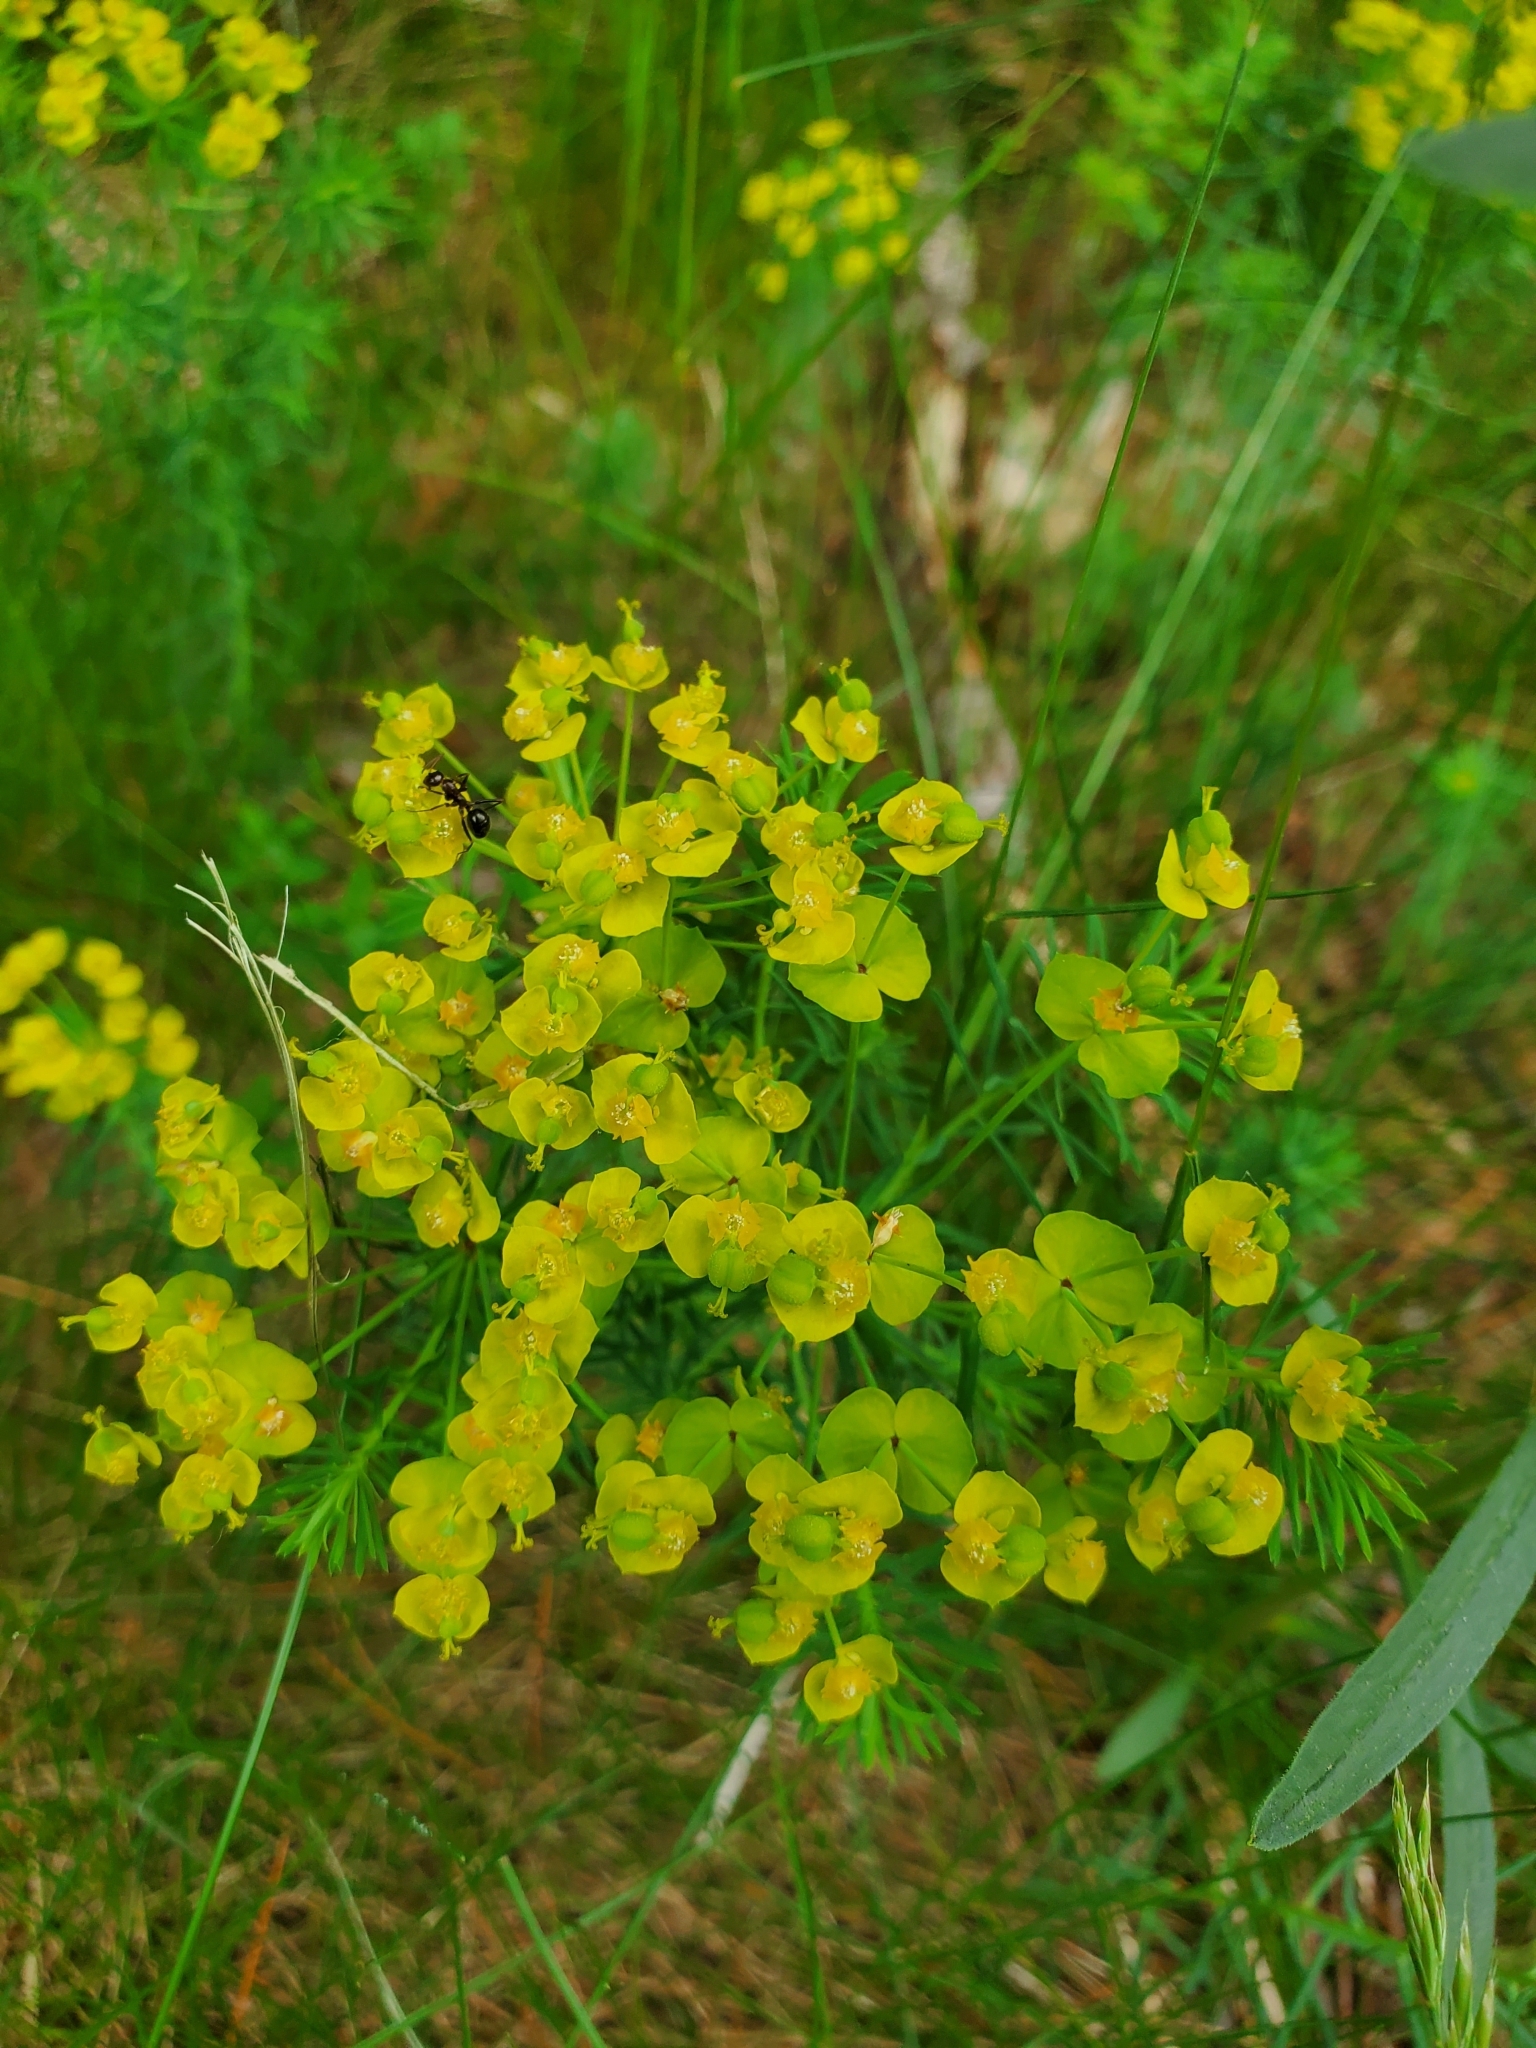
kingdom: Plantae
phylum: Tracheophyta
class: Magnoliopsida
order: Malpighiales
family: Euphorbiaceae
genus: Euphorbia
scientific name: Euphorbia cyparissias
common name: Cypress spurge
